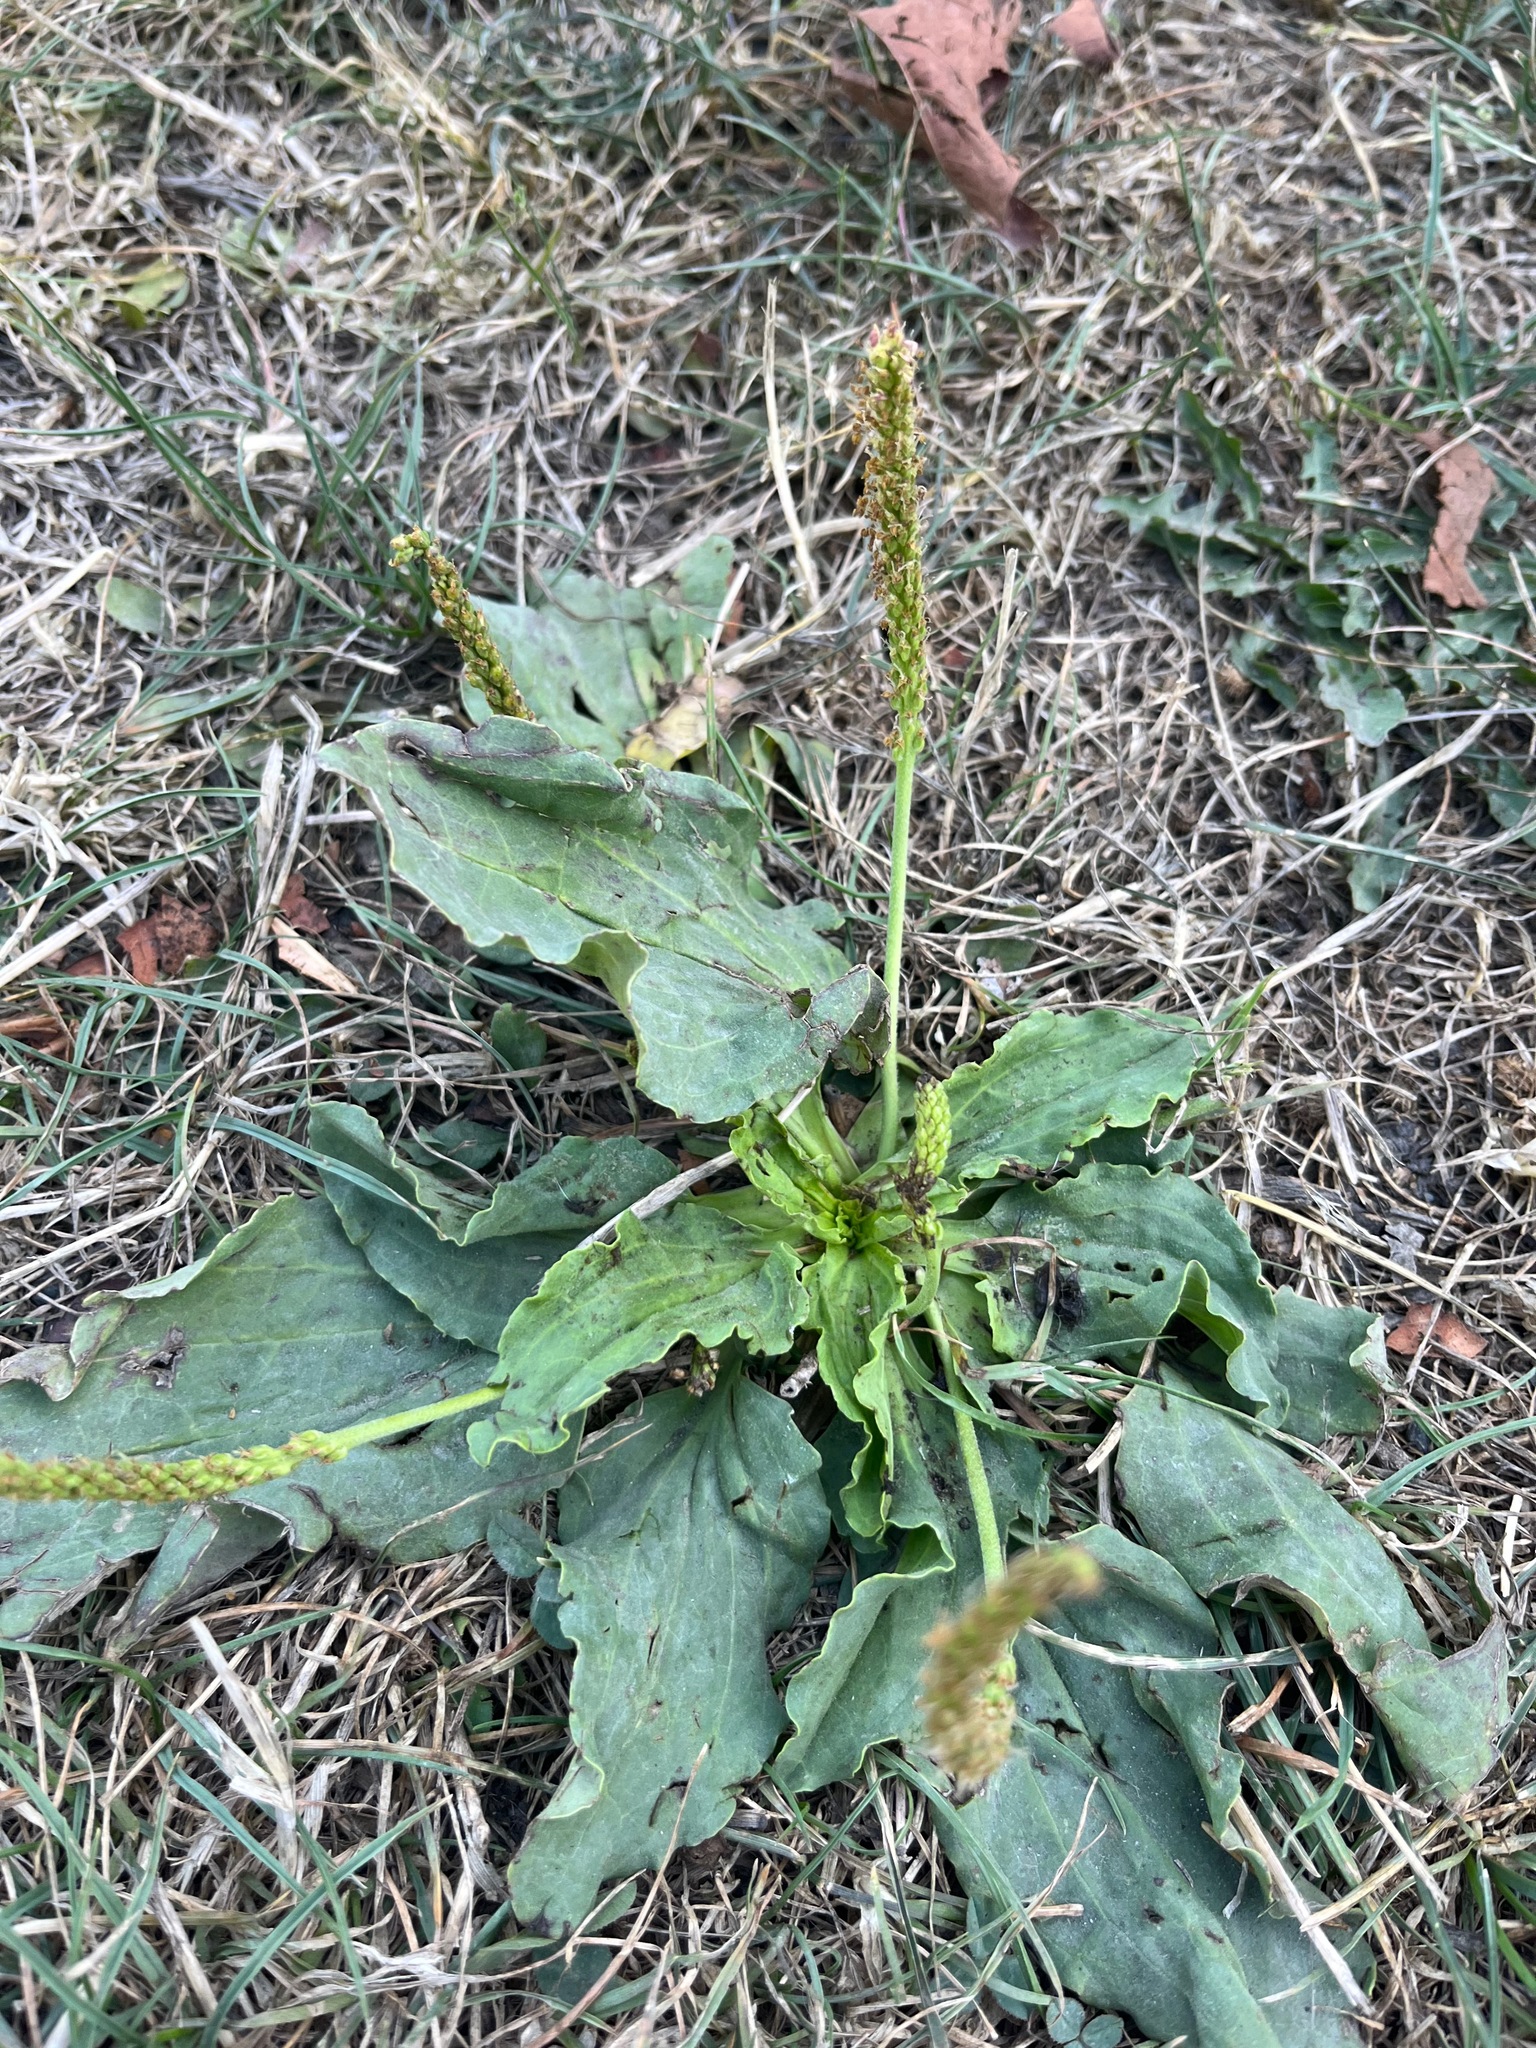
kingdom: Plantae
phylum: Tracheophyta
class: Magnoliopsida
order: Lamiales
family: Plantaginaceae
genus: Plantago
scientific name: Plantago major
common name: Common plantain
